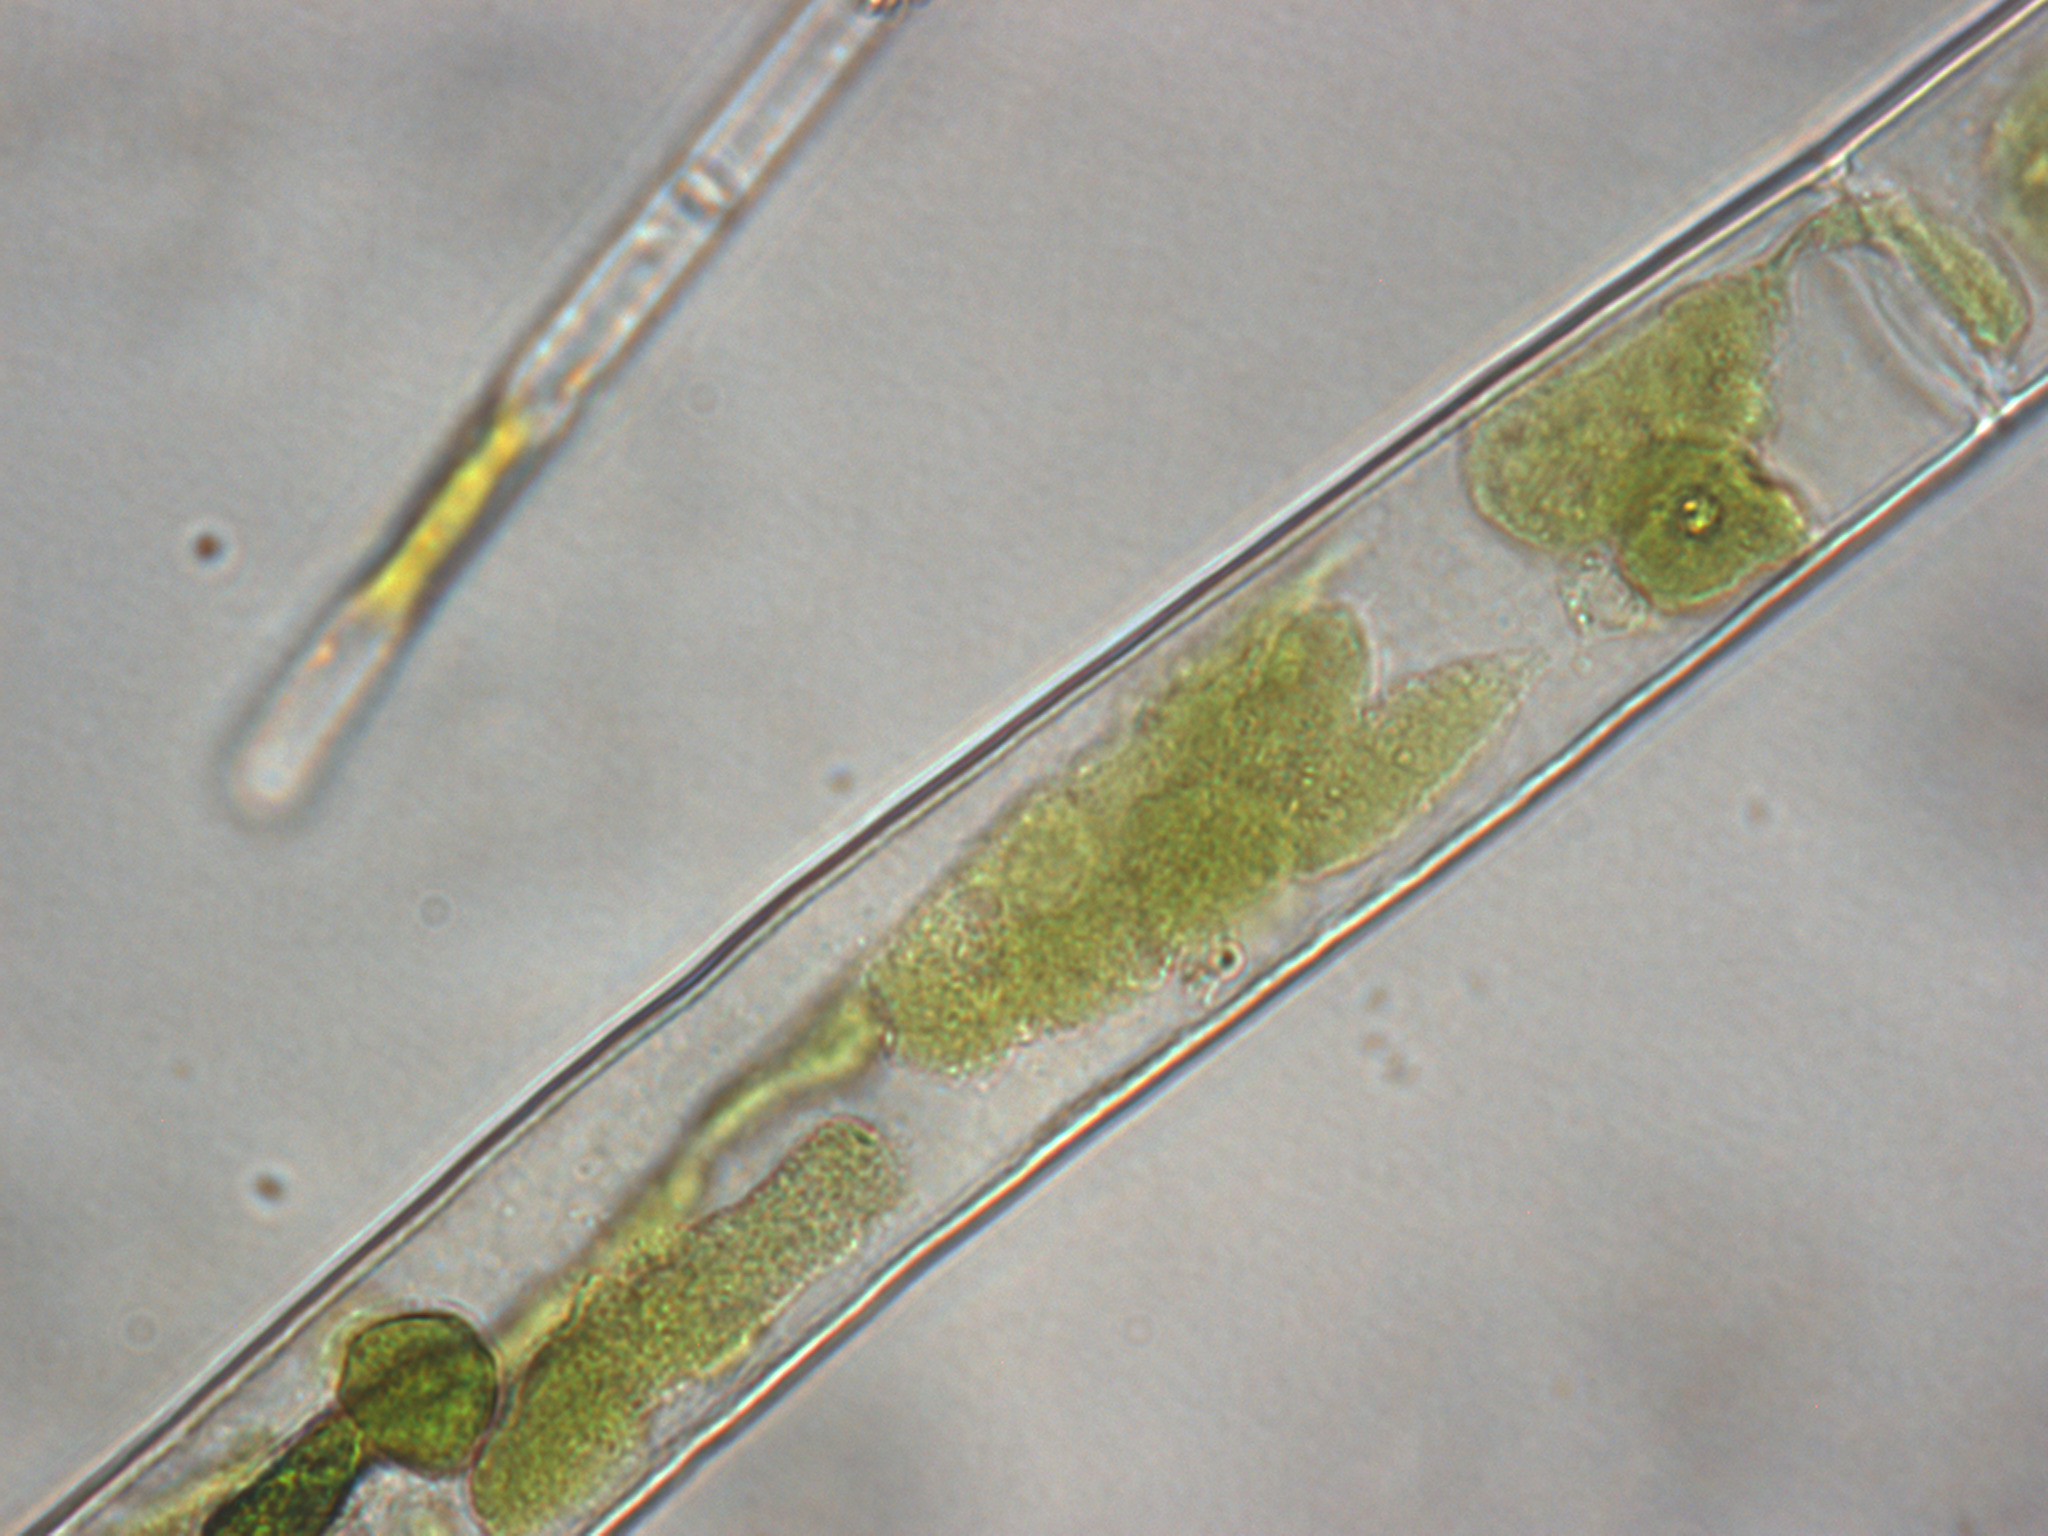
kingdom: Plantae
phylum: Charophyta
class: Zygnematophyceae
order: Zygnematales
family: Zygnemataceae
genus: Mougeotia
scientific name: Mougeotia
